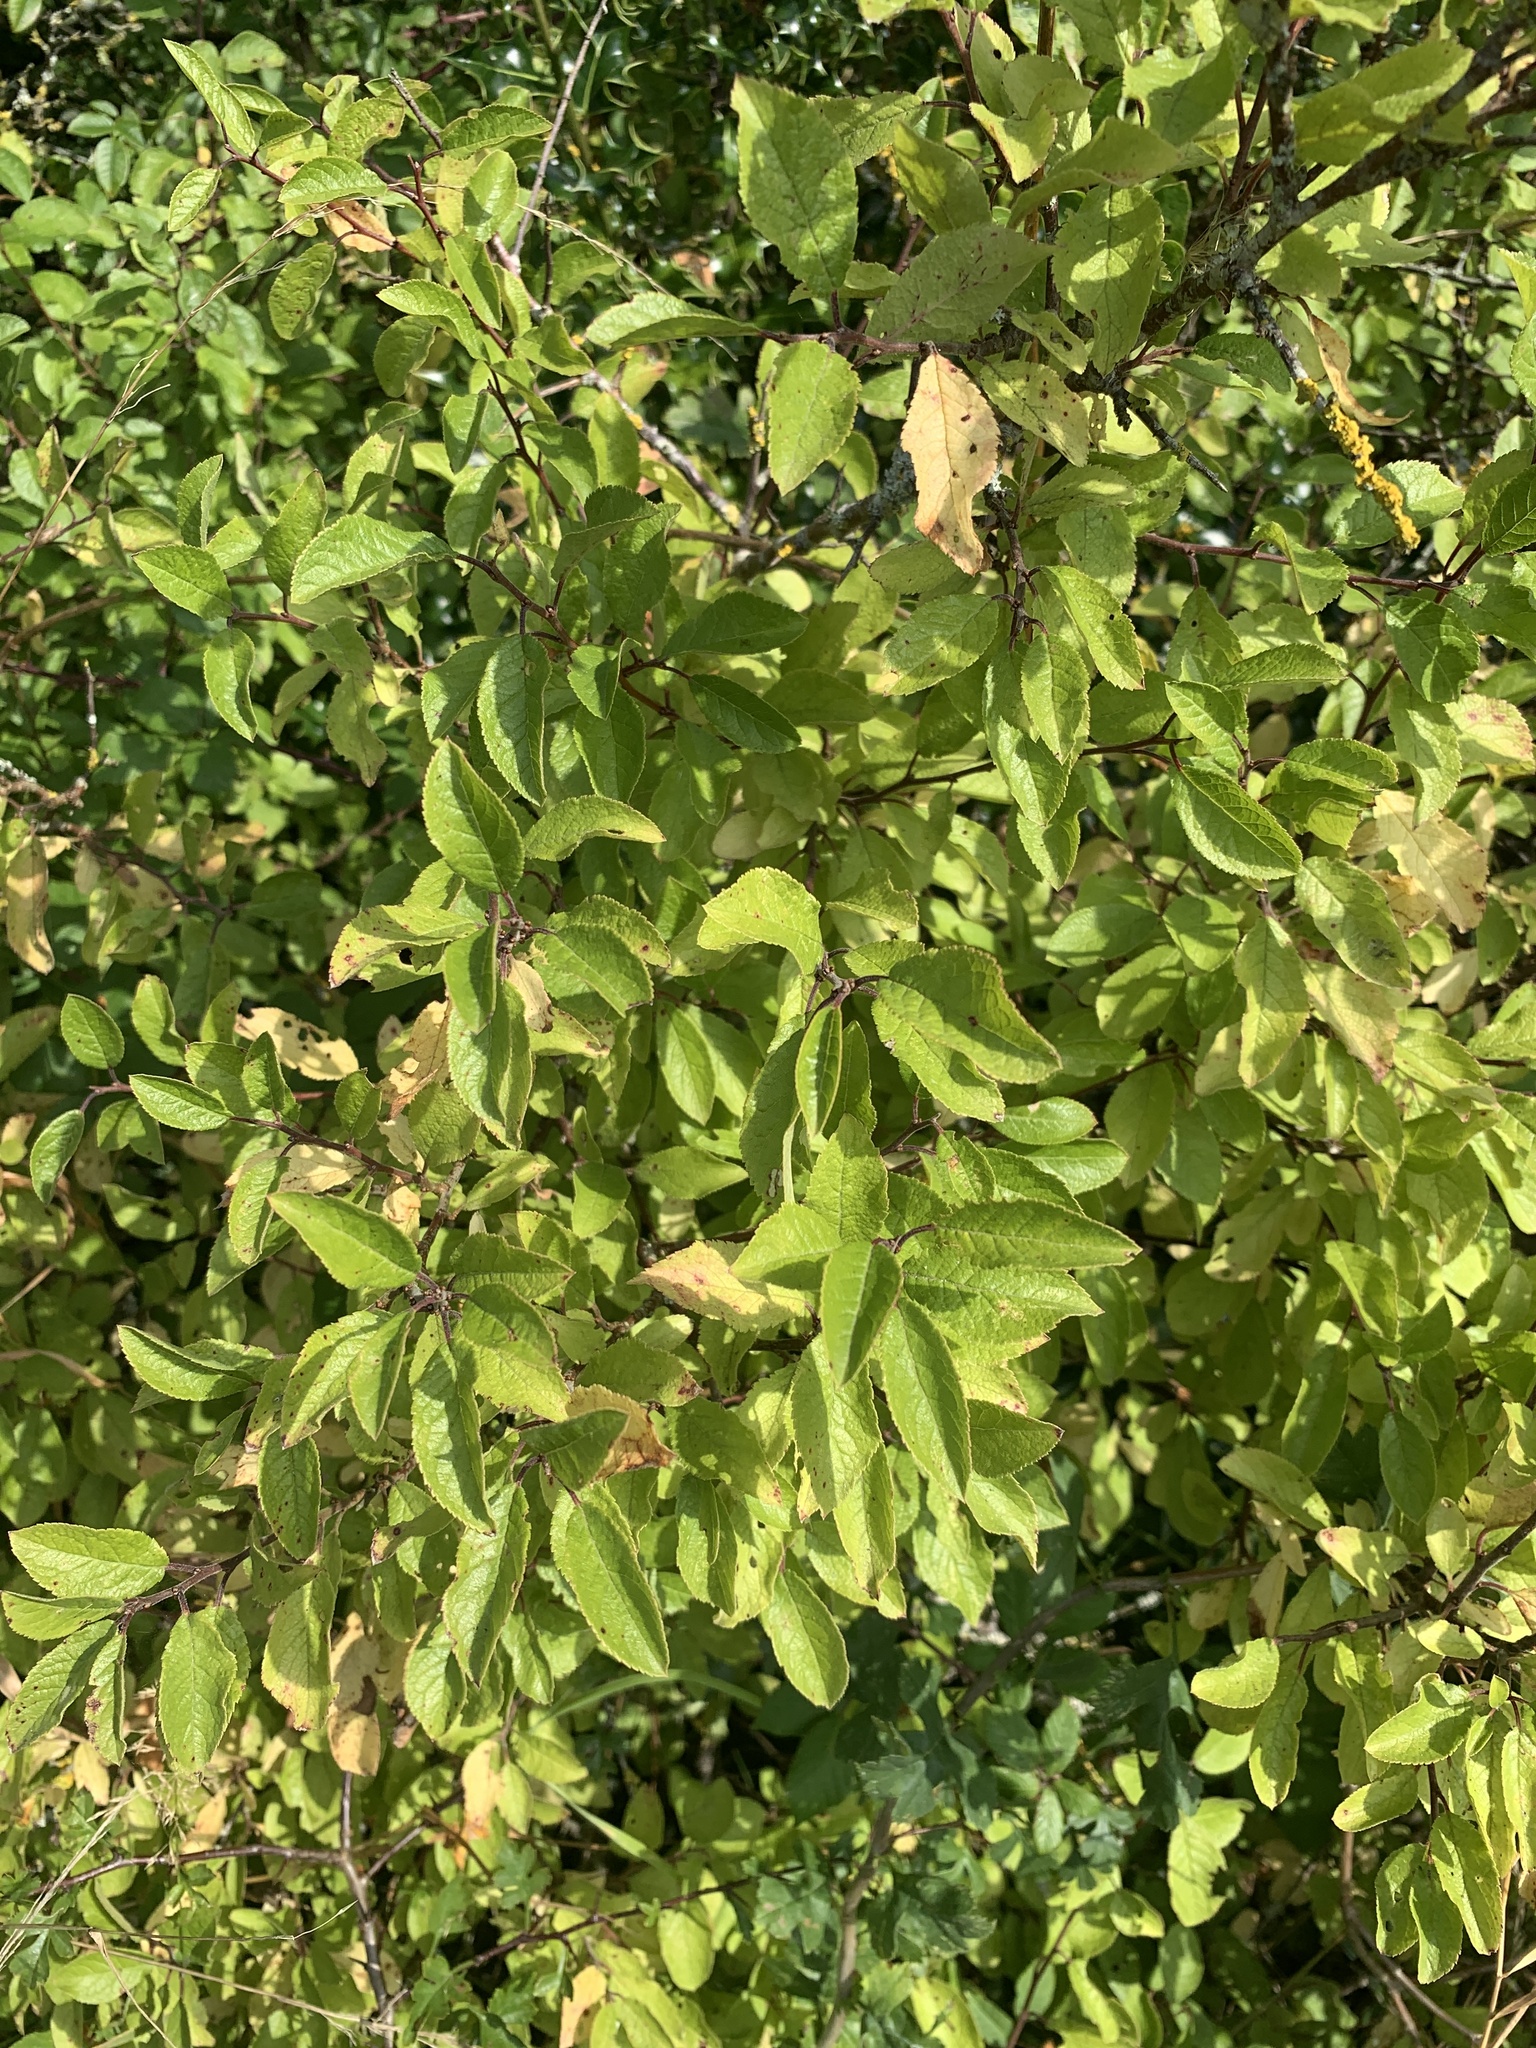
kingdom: Plantae
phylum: Tracheophyta
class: Magnoliopsida
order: Rosales
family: Rosaceae
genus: Prunus
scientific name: Prunus spinosa
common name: Blackthorn
